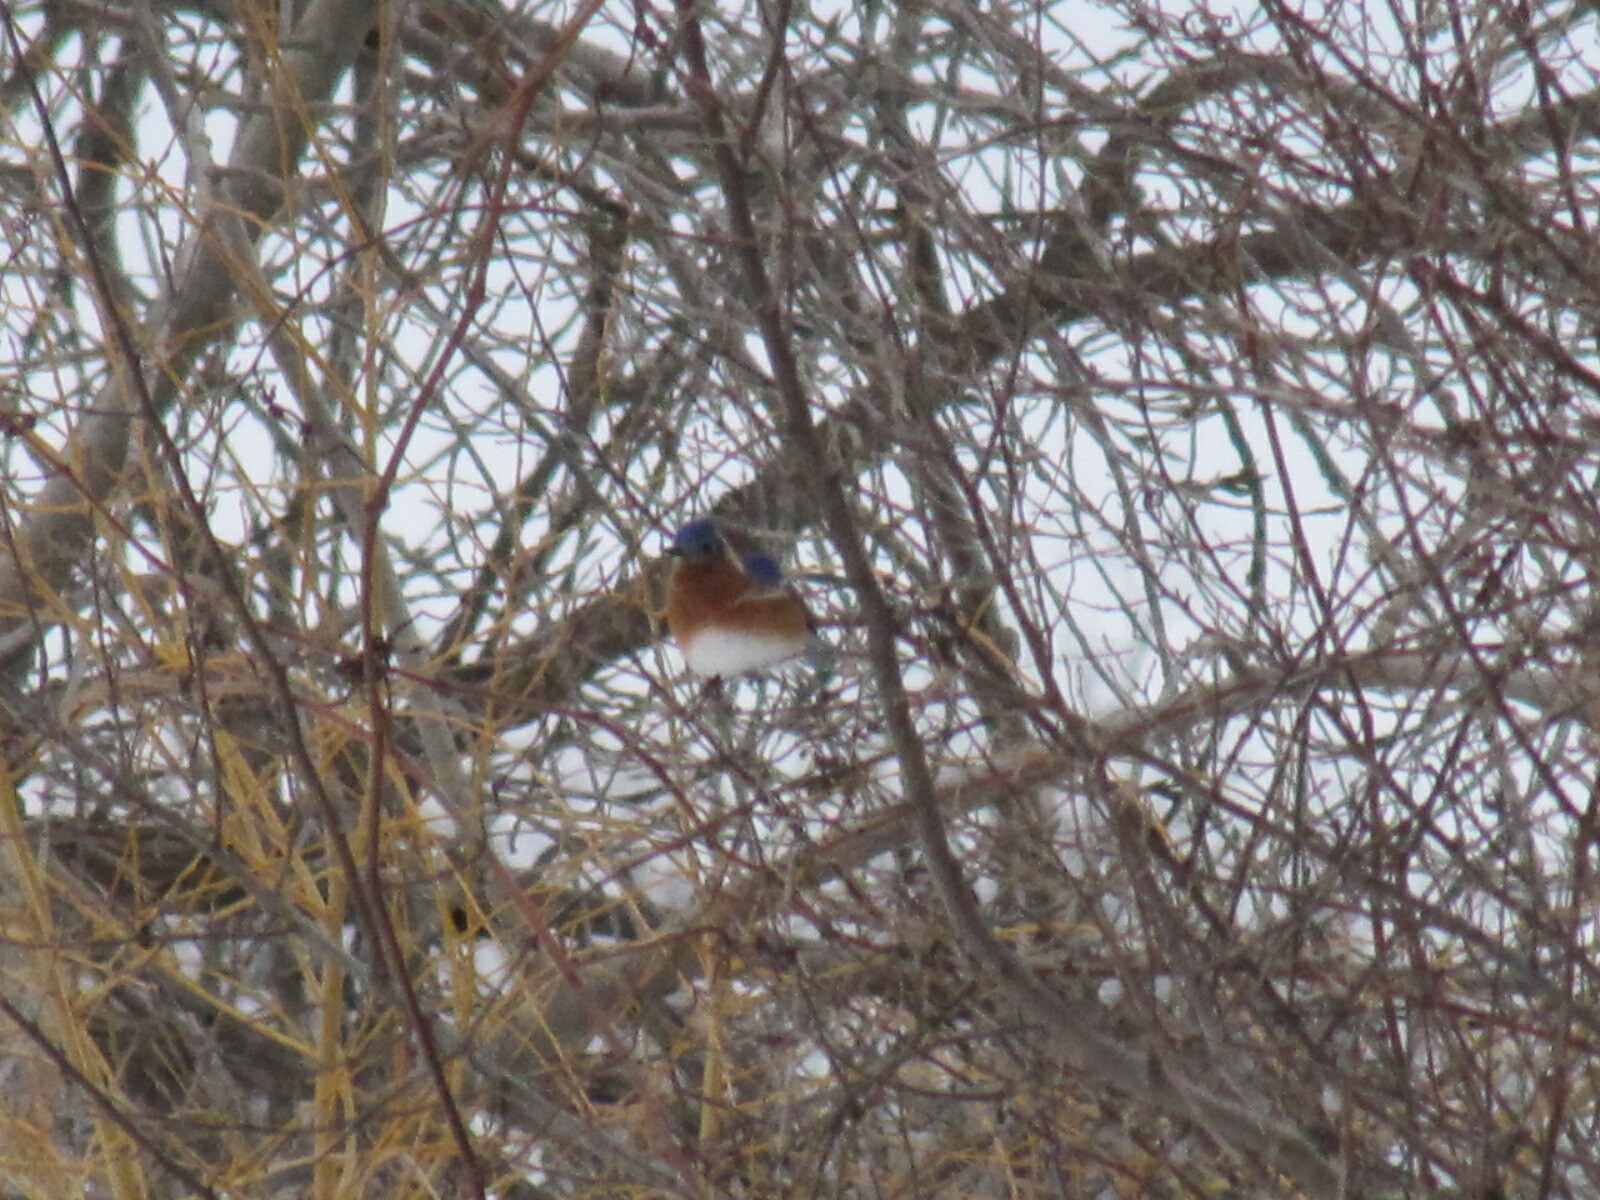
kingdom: Animalia
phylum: Chordata
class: Aves
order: Passeriformes
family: Turdidae
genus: Sialia
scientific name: Sialia sialis
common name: Eastern bluebird
